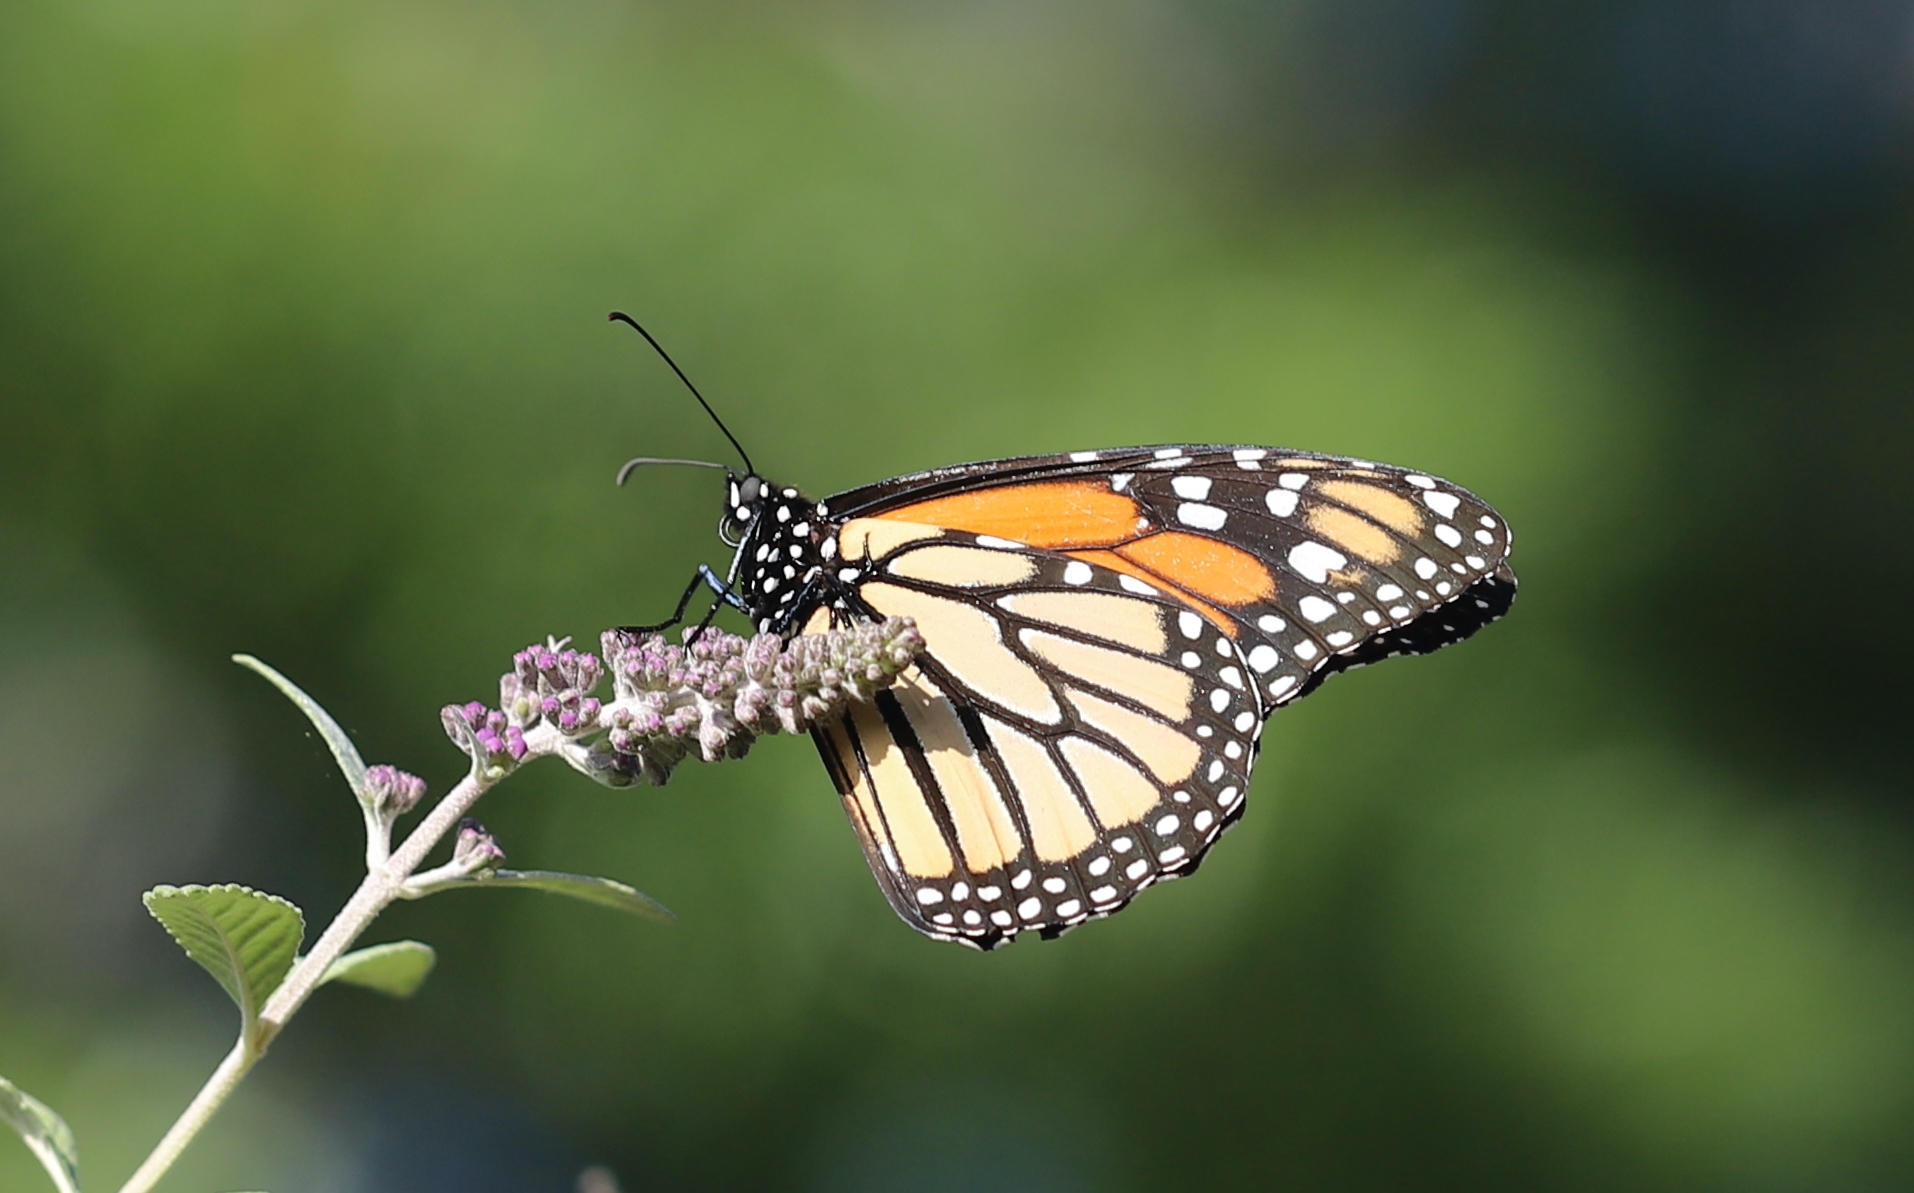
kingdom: Animalia
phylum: Arthropoda
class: Insecta
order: Lepidoptera
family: Nymphalidae
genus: Danaus
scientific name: Danaus plexippus
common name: Monarch
